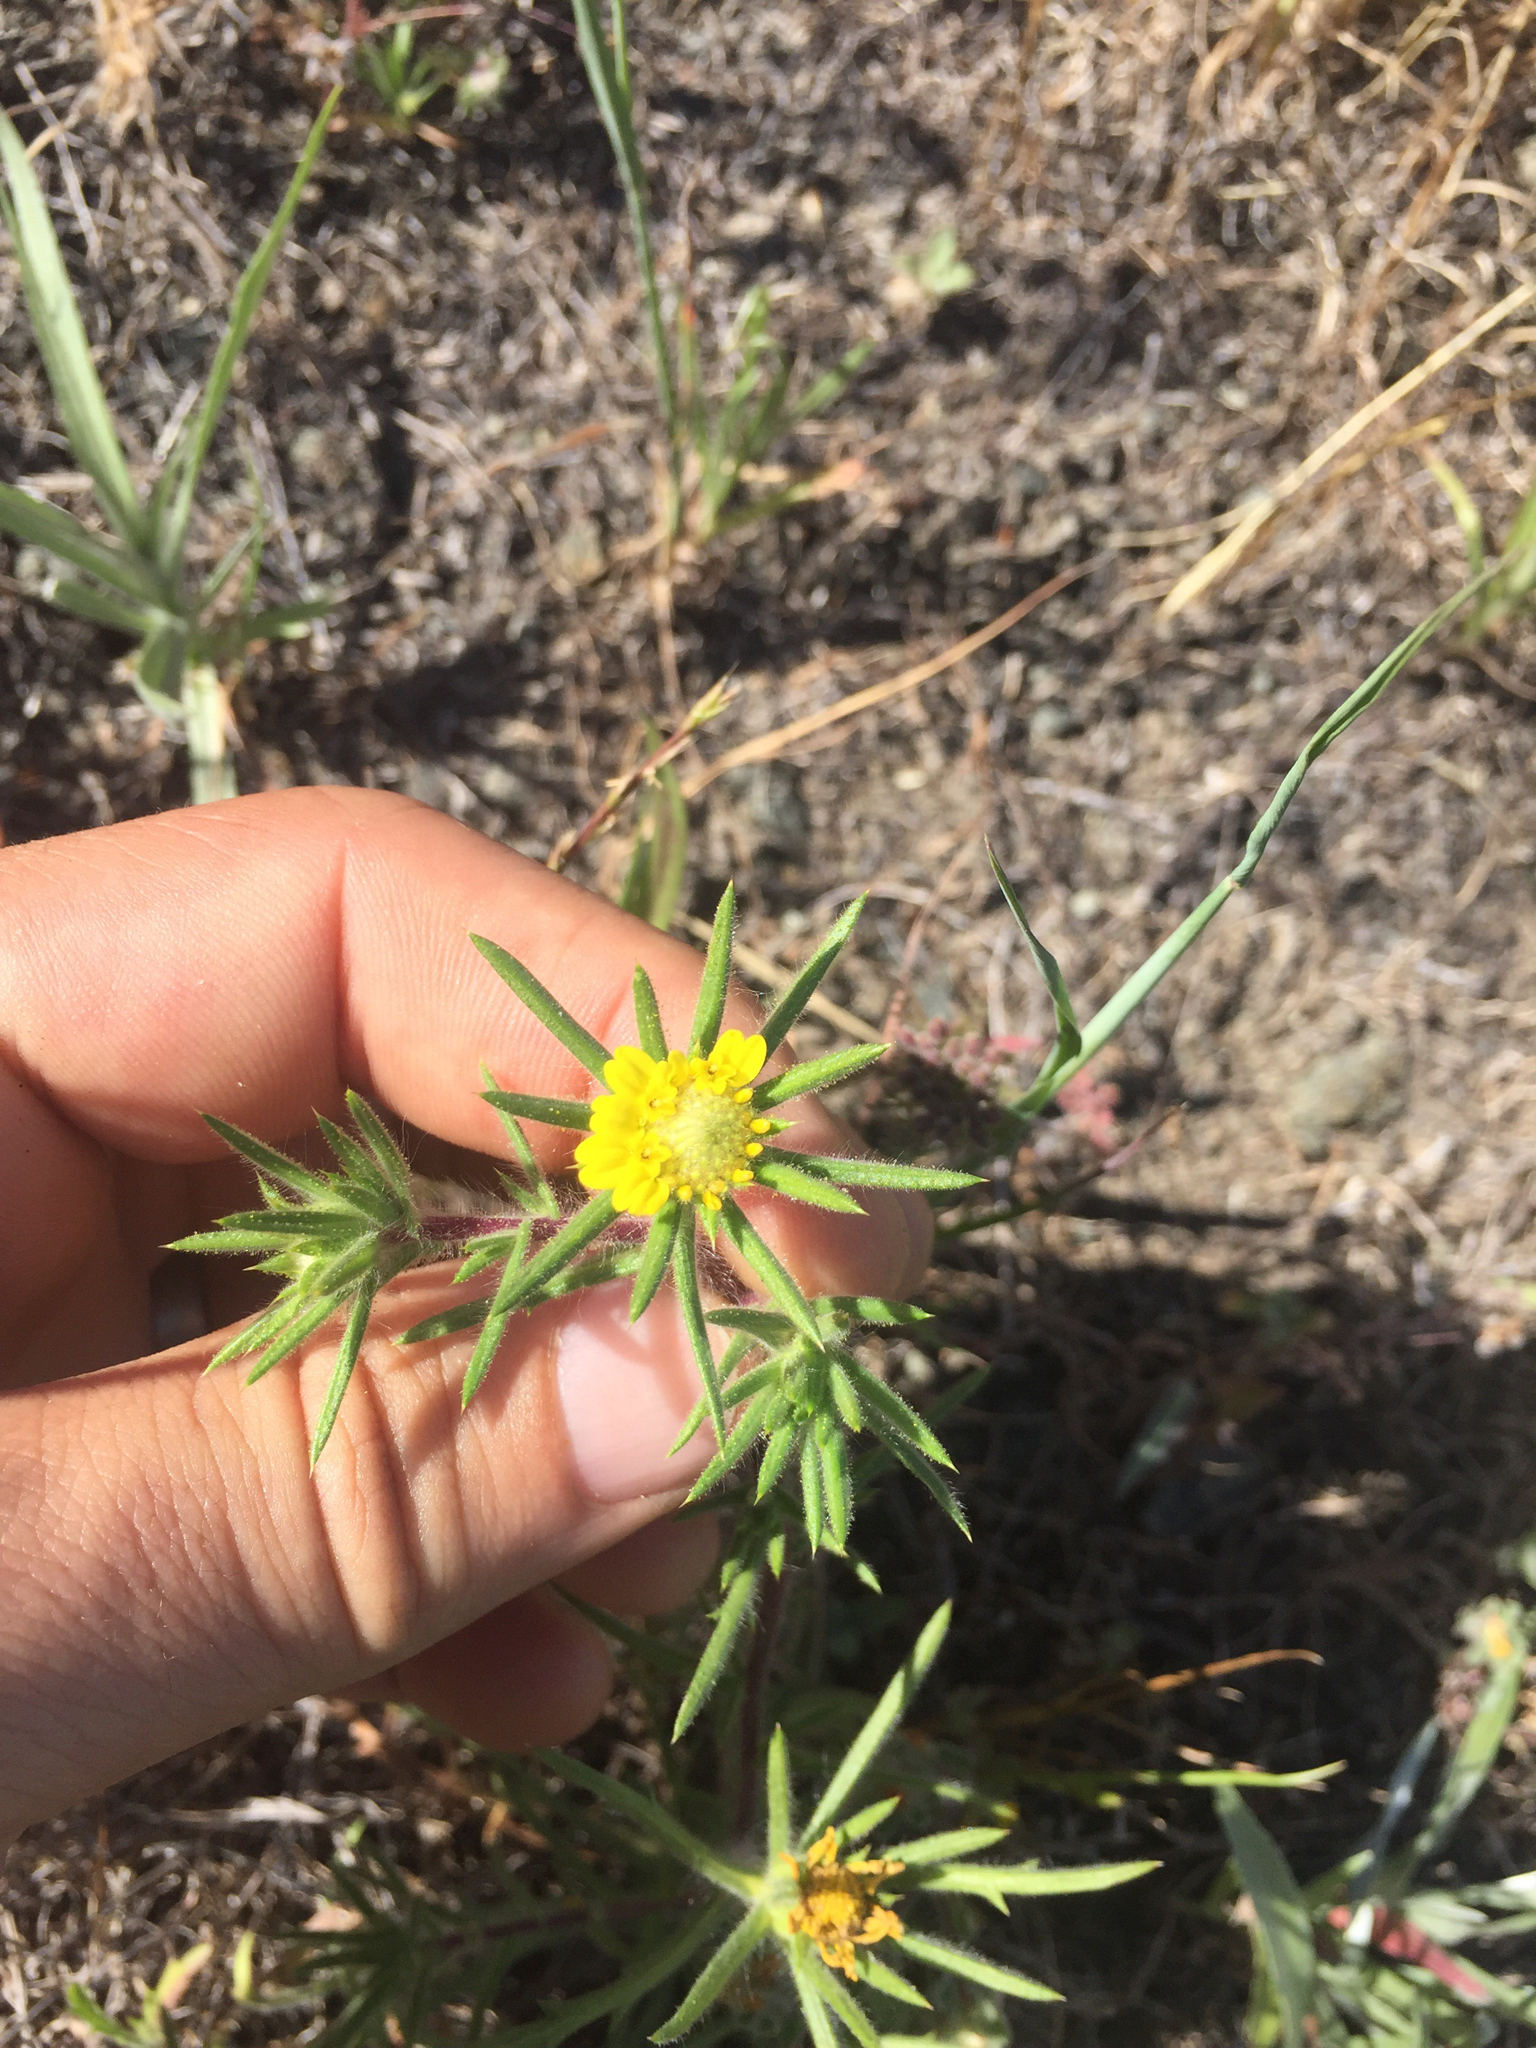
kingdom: Plantae
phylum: Tracheophyta
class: Magnoliopsida
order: Asterales
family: Asteraceae
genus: Centromadia
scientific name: Centromadia fitchii
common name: Fitch's spikeweed
